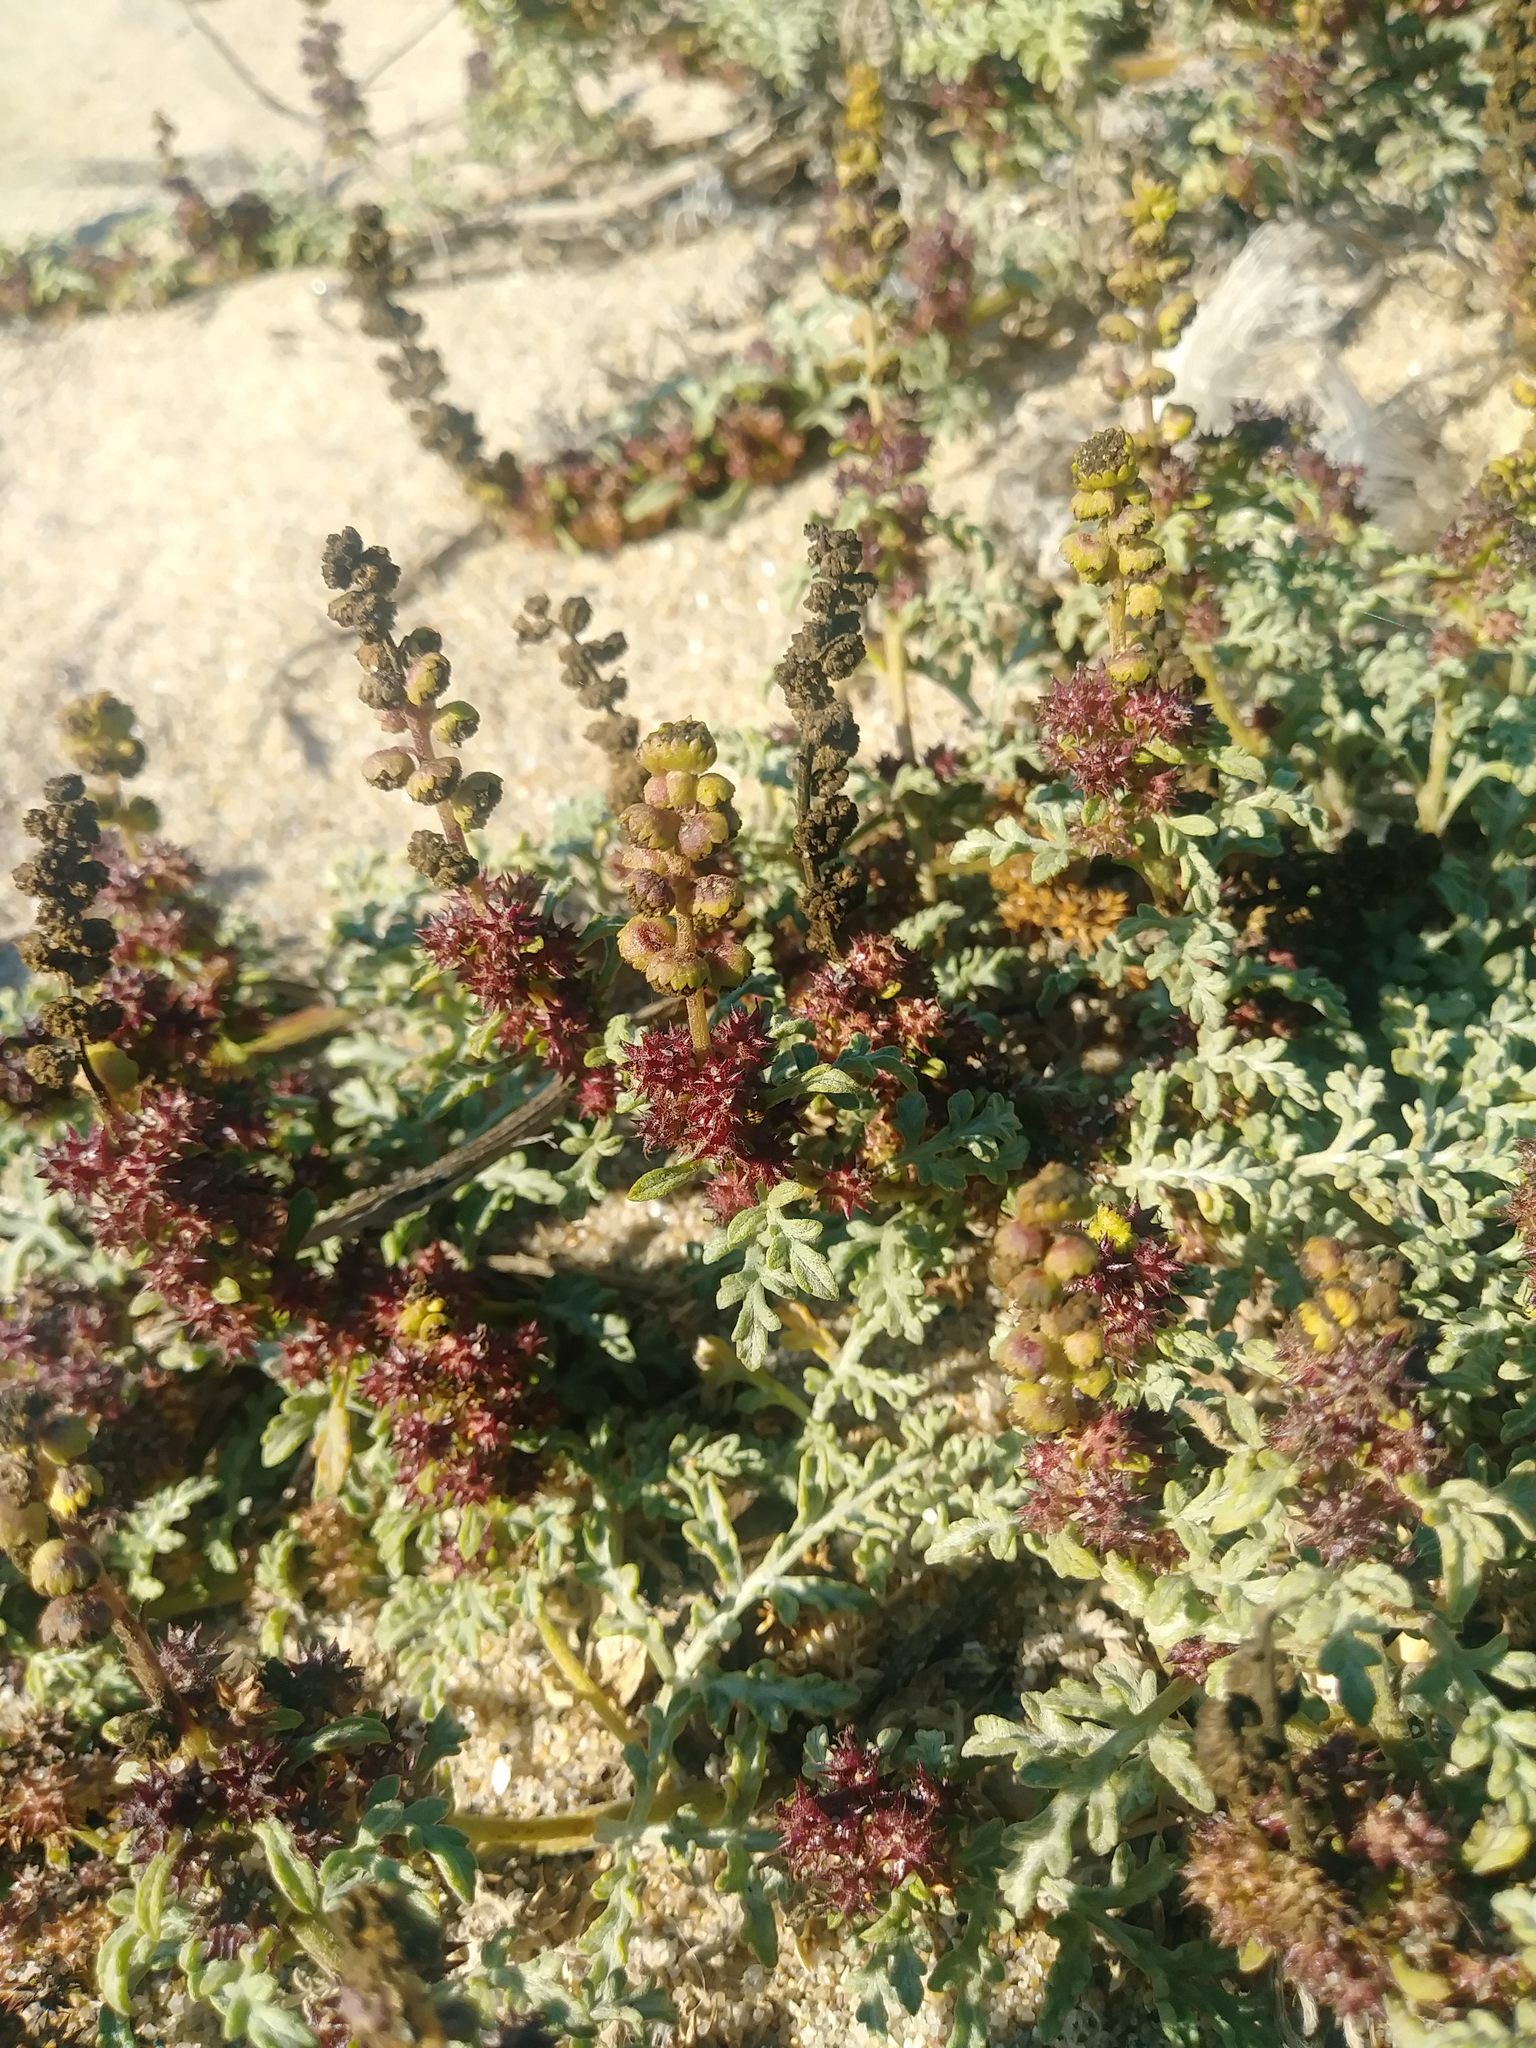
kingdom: Plantae
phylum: Tracheophyta
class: Magnoliopsida
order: Asterales
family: Asteraceae
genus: Ambrosia
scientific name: Ambrosia chamissonis
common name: Beachbur
